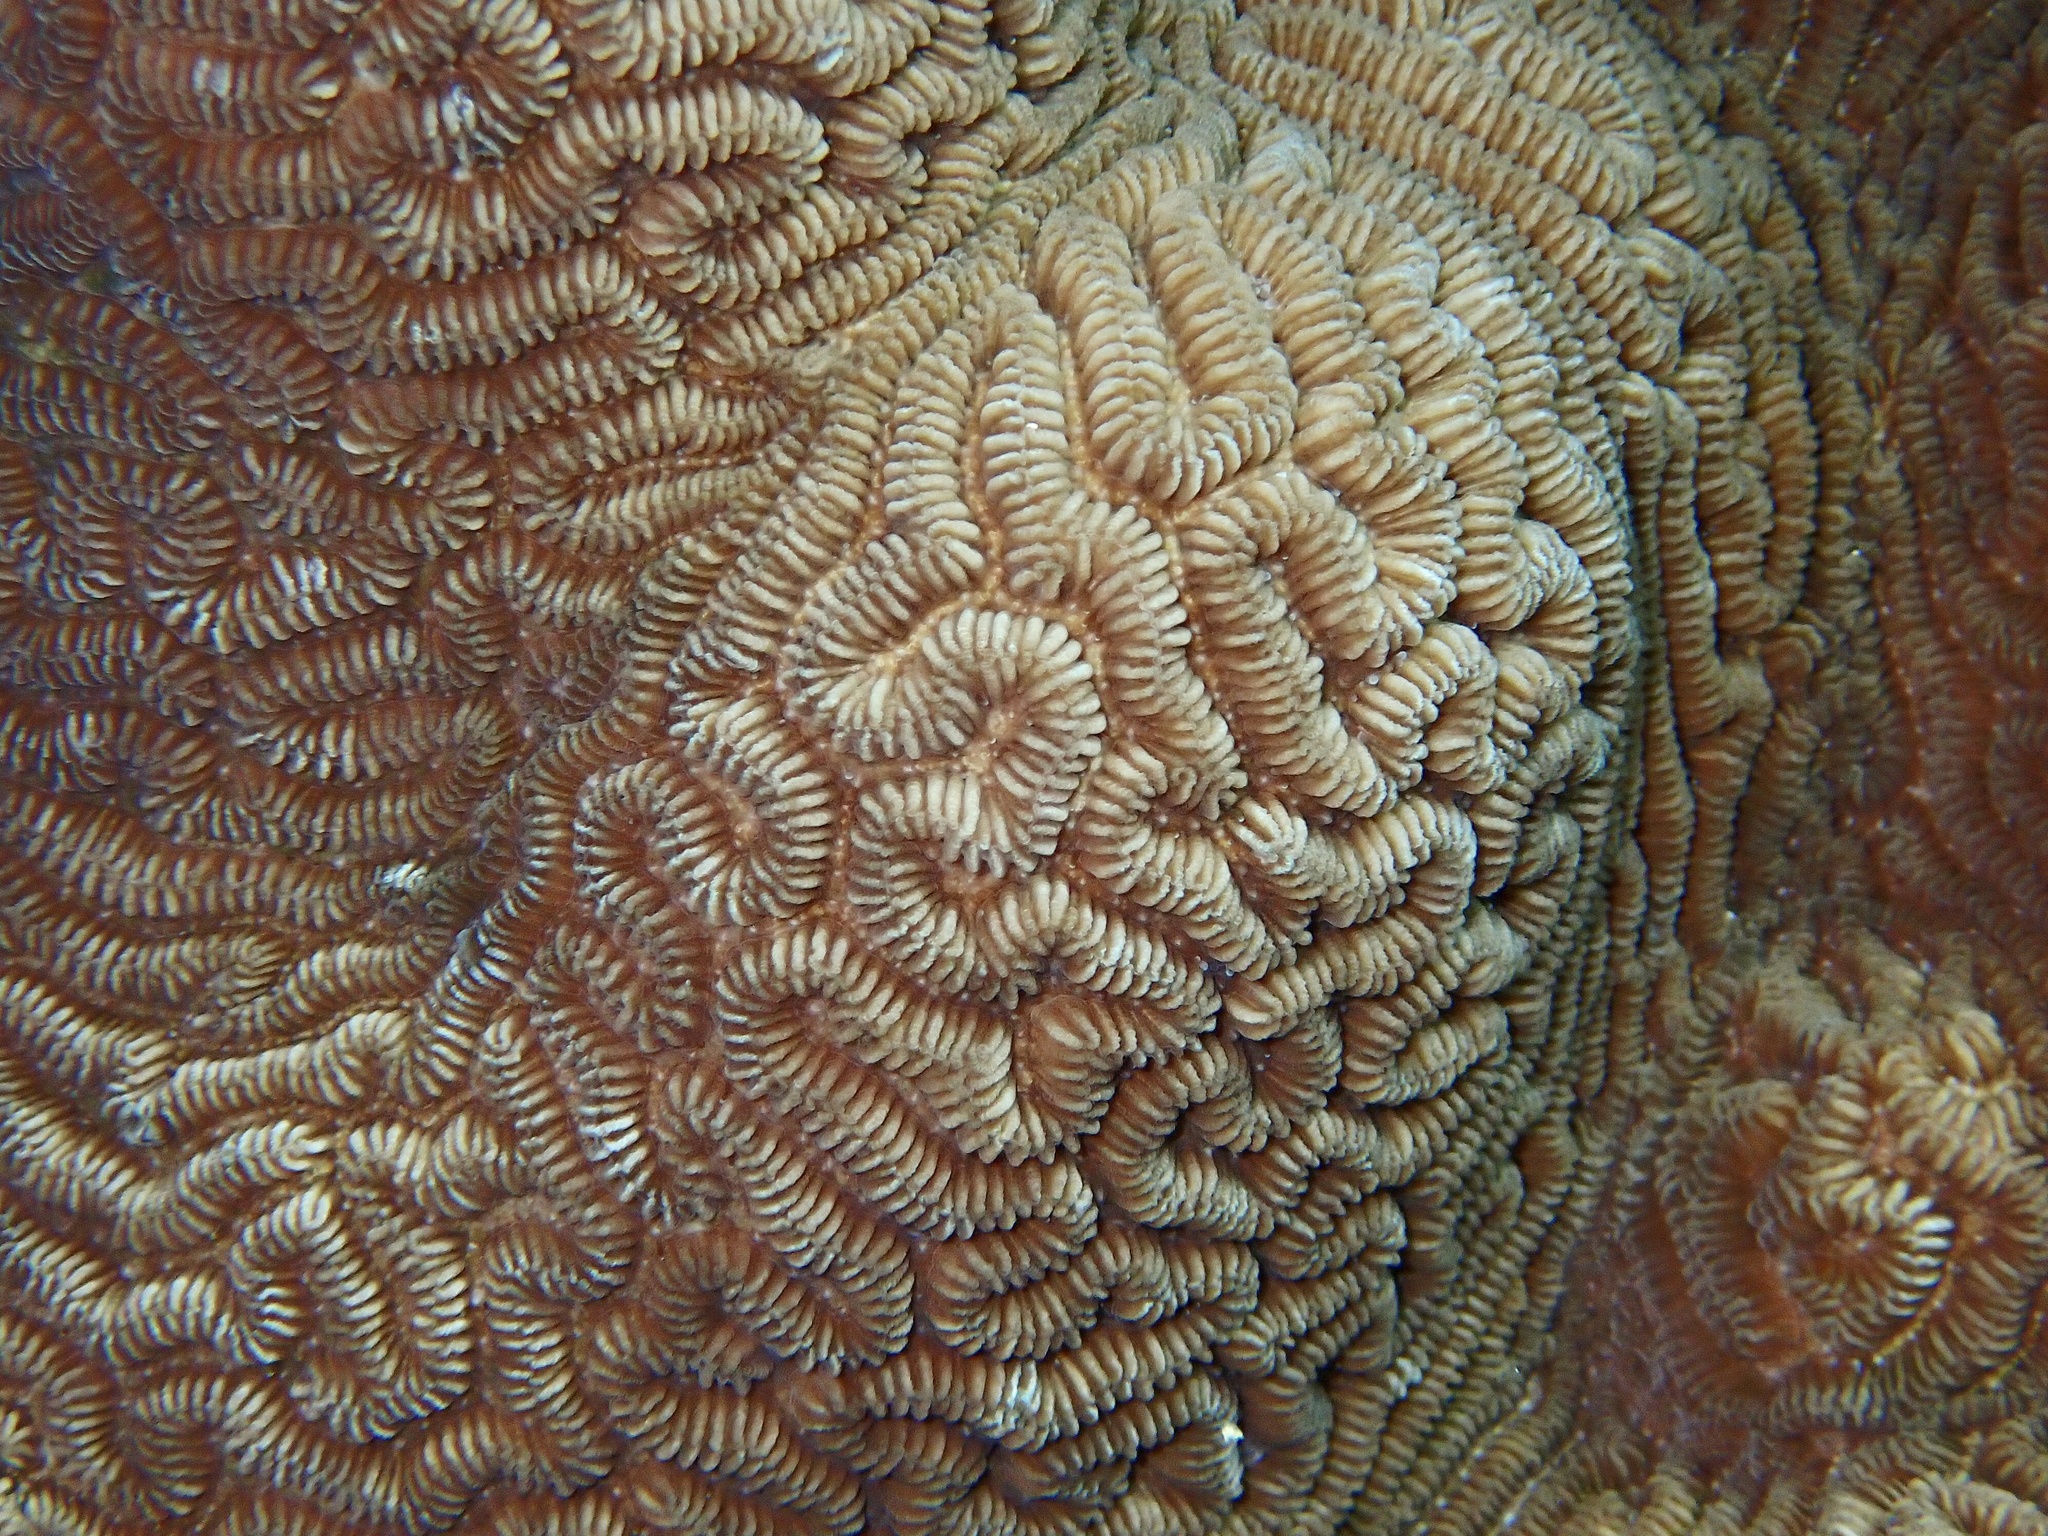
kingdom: Animalia
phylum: Cnidaria
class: Anthozoa
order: Scleractinia
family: Merulinidae
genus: Leptoria
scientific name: Leptoria phrygia
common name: Least valley coral
